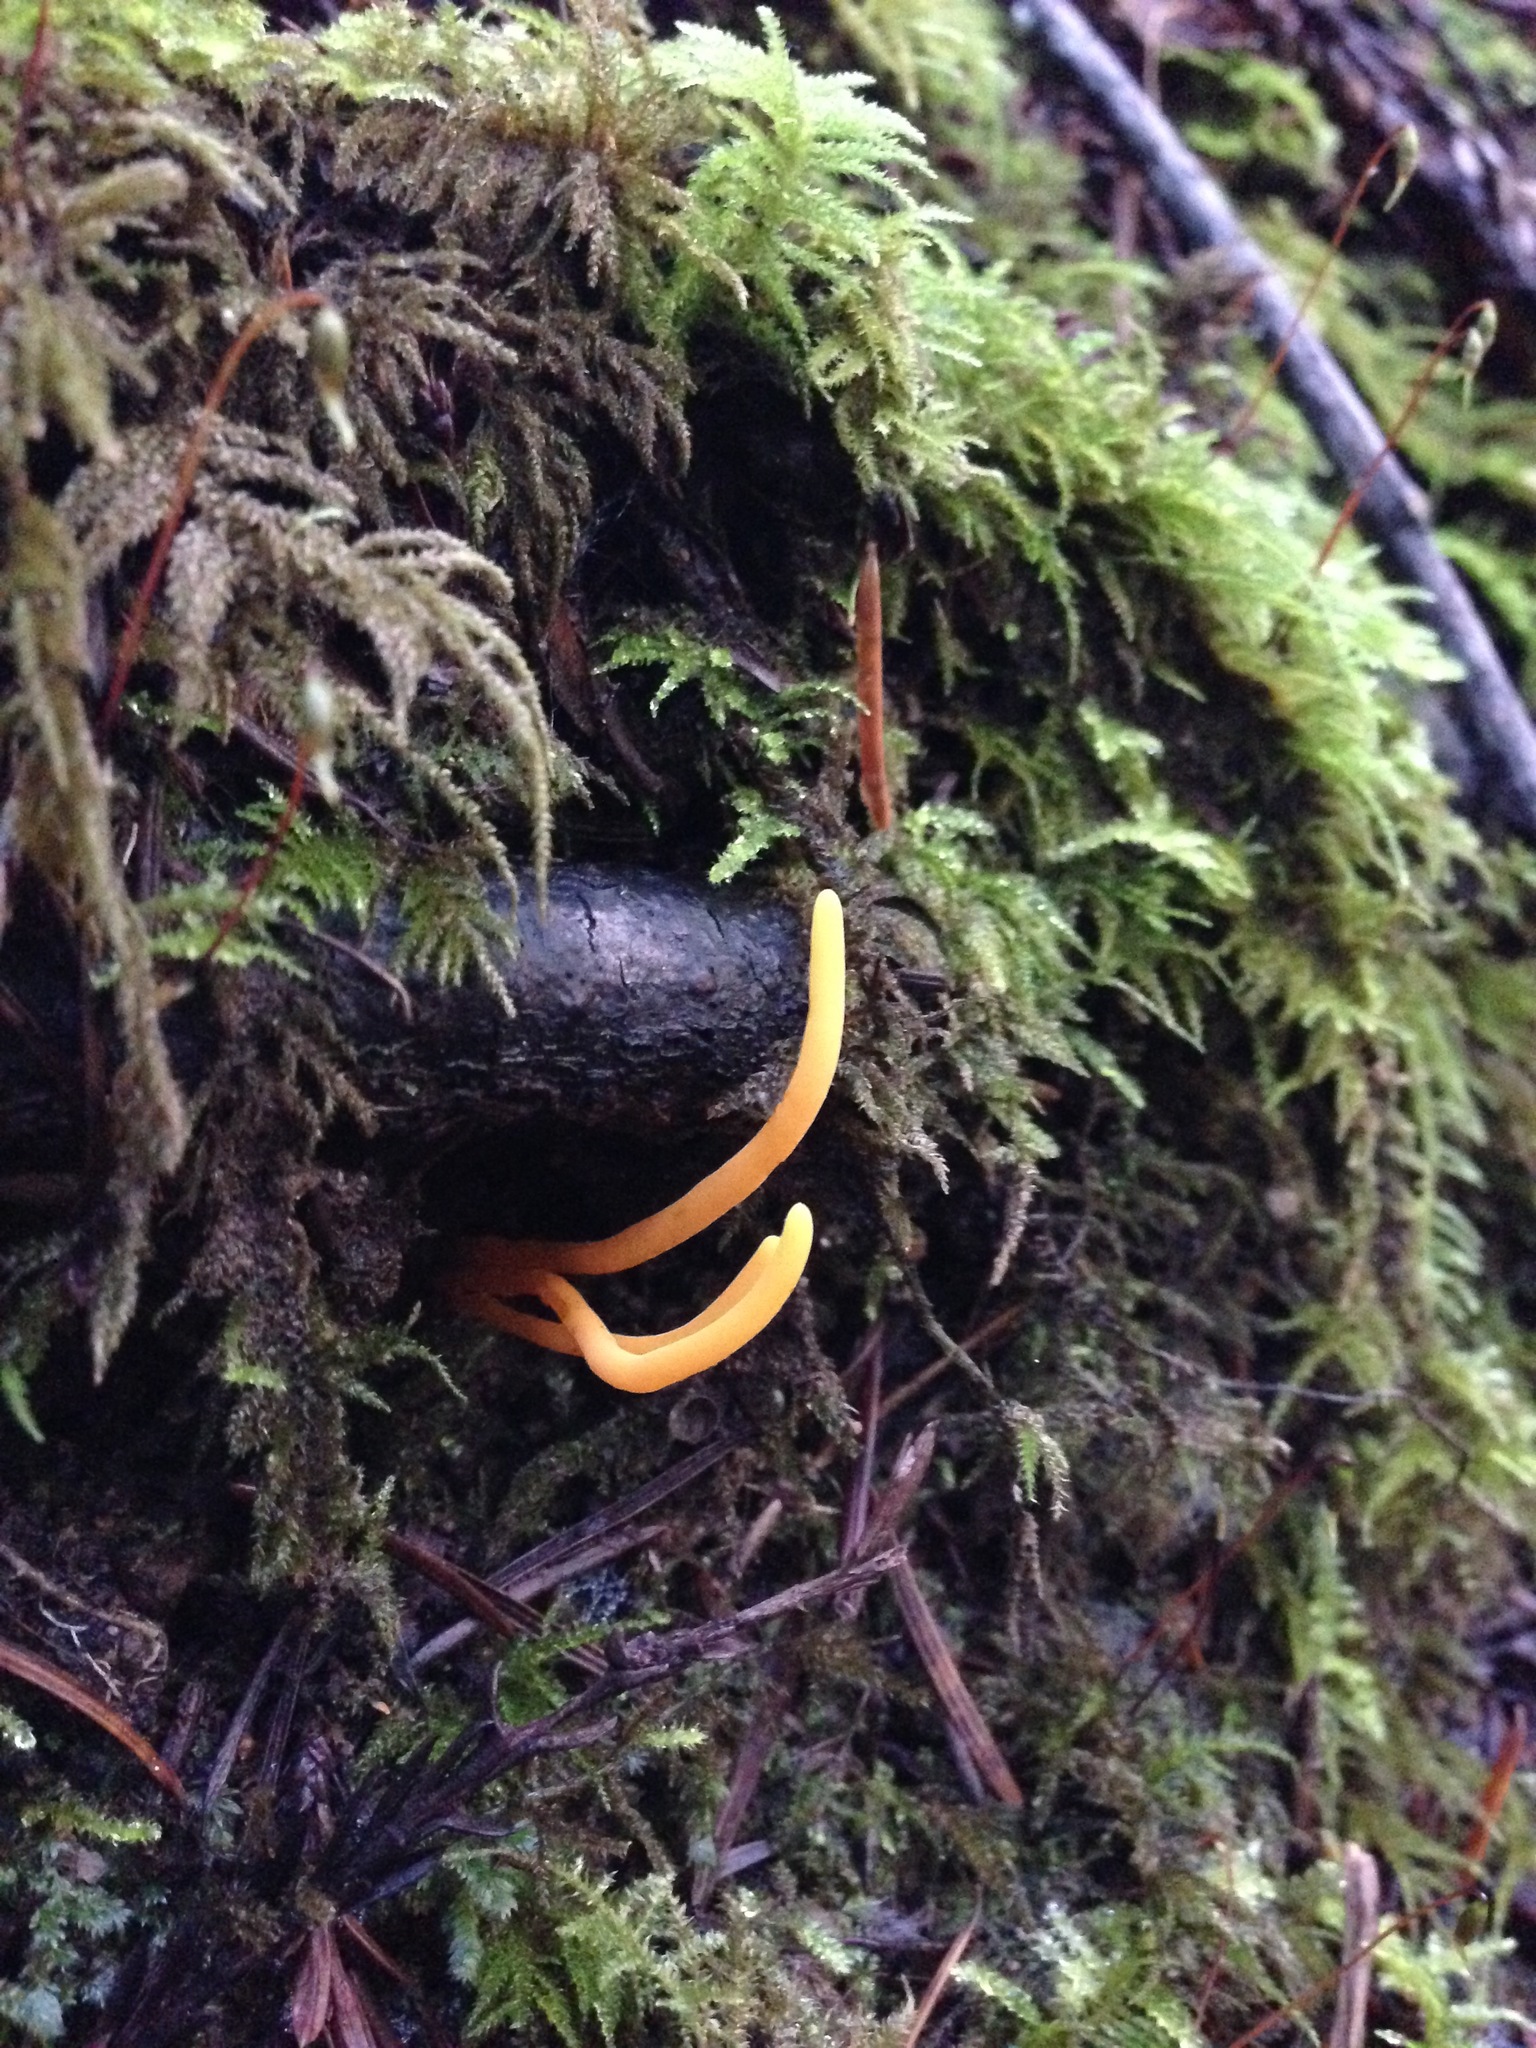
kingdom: Fungi
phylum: Basidiomycota
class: Agaricomycetes
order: Agaricales
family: Clavariaceae
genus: Clavulinopsis
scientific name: Clavulinopsis laeticolor
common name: Handsome club
